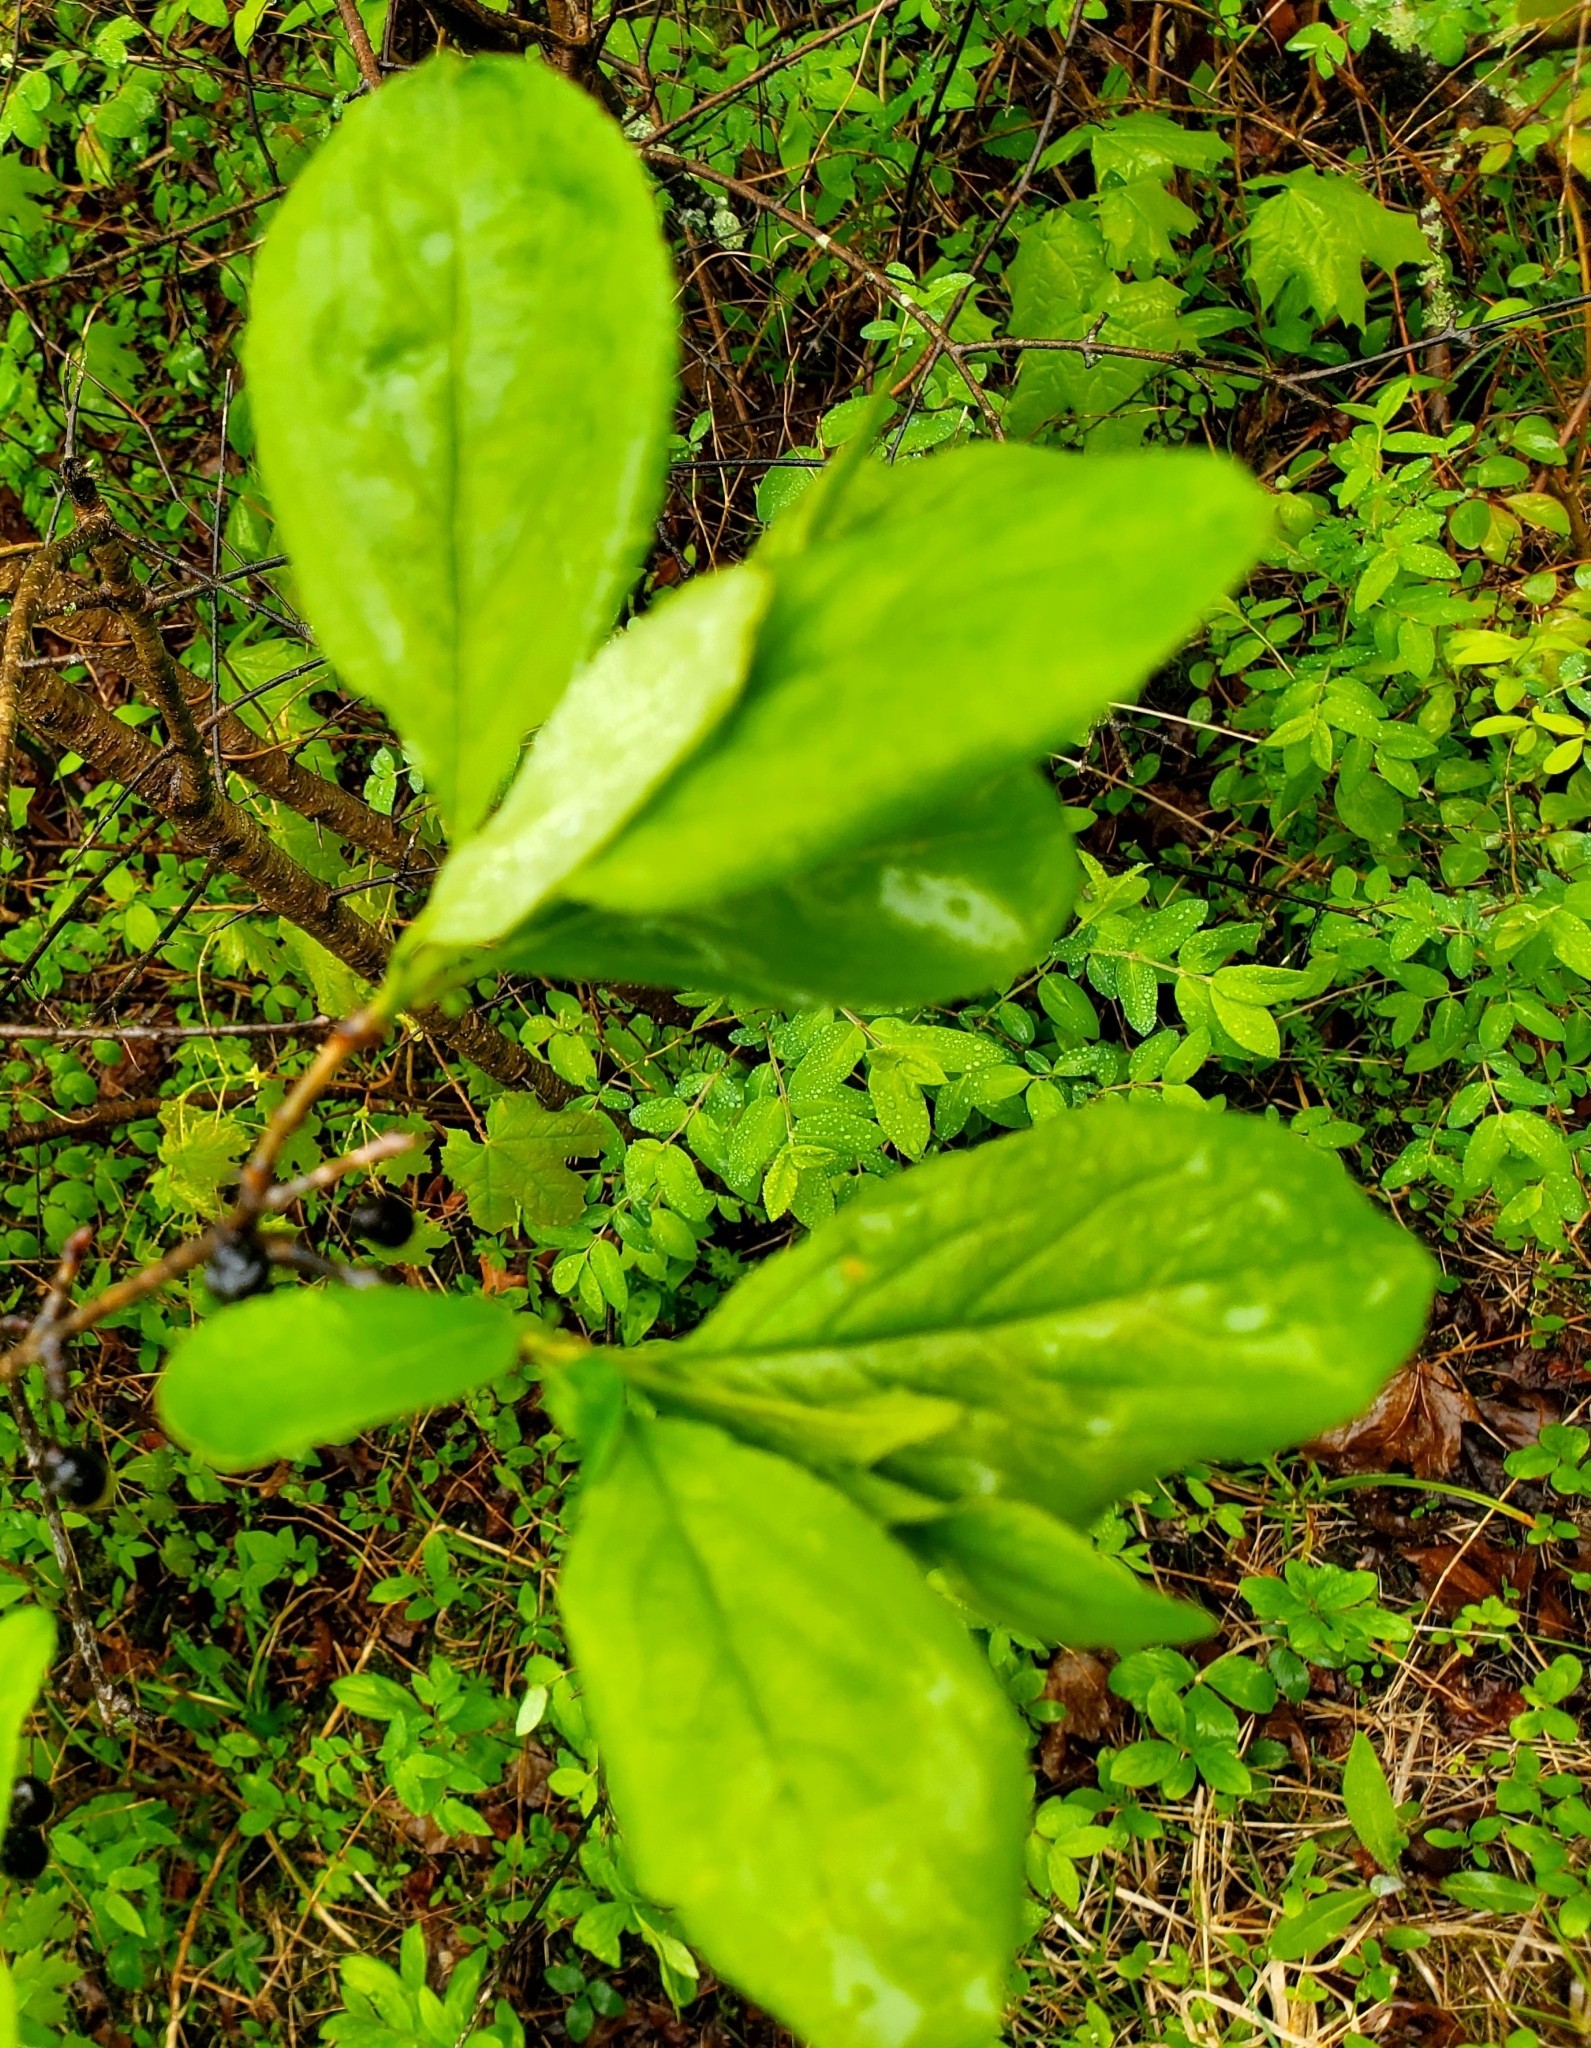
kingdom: Plantae
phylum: Tracheophyta
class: Magnoliopsida
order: Rosales
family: Rhamnaceae
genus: Rhamnus
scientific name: Rhamnus cathartica
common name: Common buckthorn
